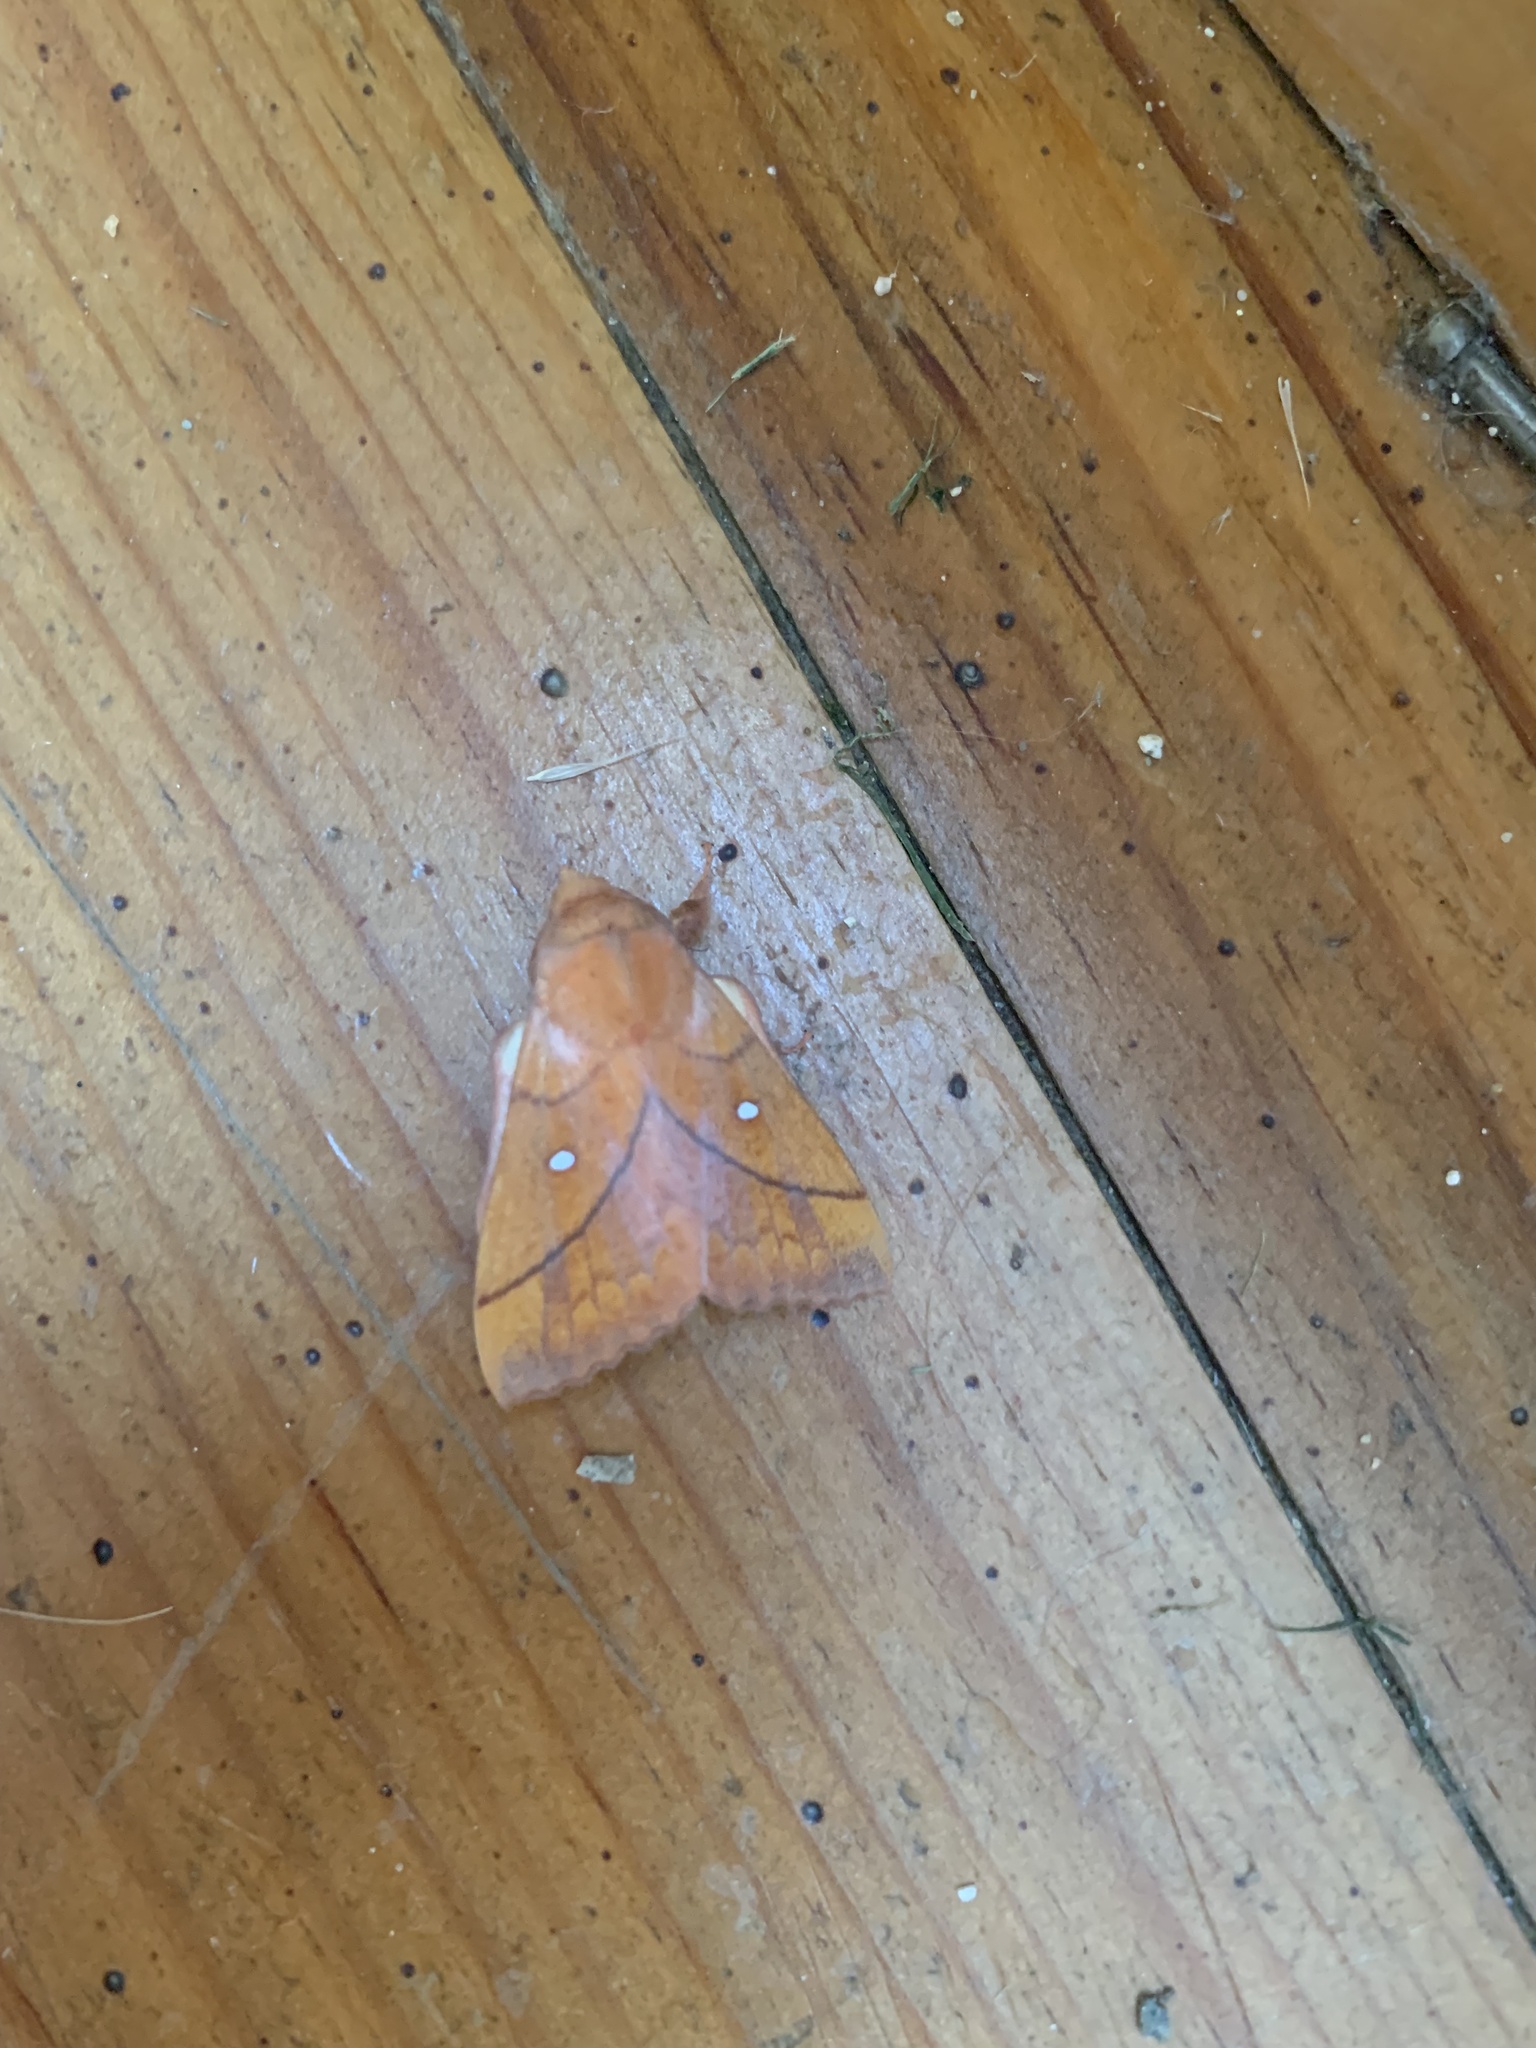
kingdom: Animalia
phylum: Arthropoda
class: Insecta
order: Lepidoptera
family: Lasiocampidae
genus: Odonestis
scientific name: Odonestis pruni
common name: Plum lappet
